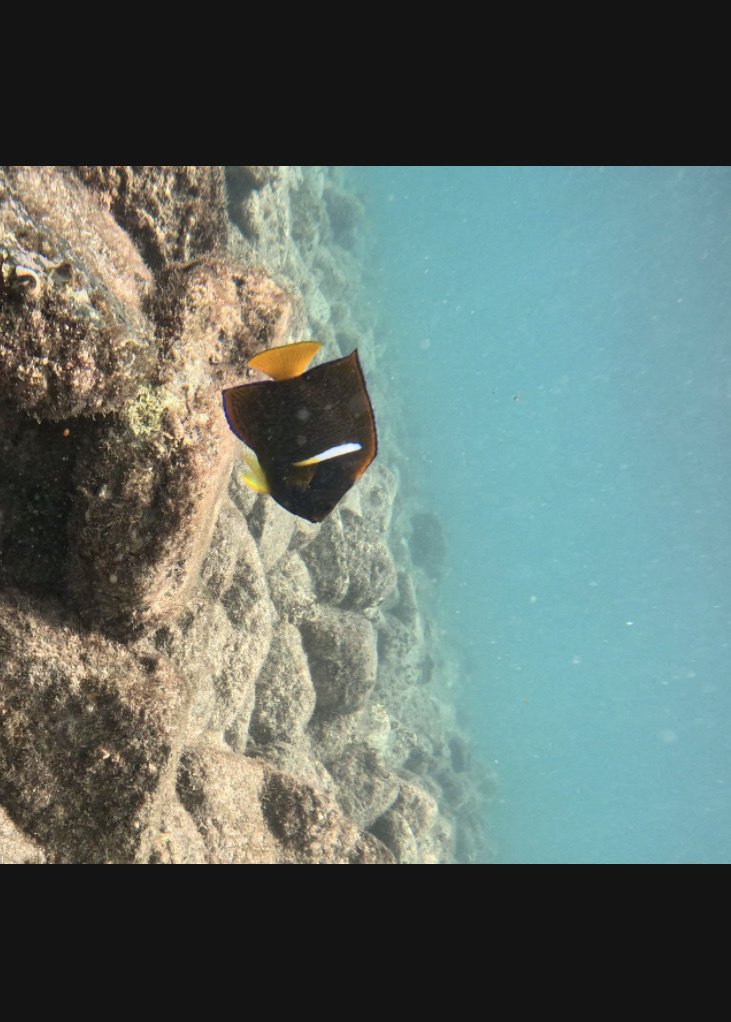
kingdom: Animalia
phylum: Chordata
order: Perciformes
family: Pomacanthidae
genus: Holacanthus
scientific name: Holacanthus passer
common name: King angelfish
